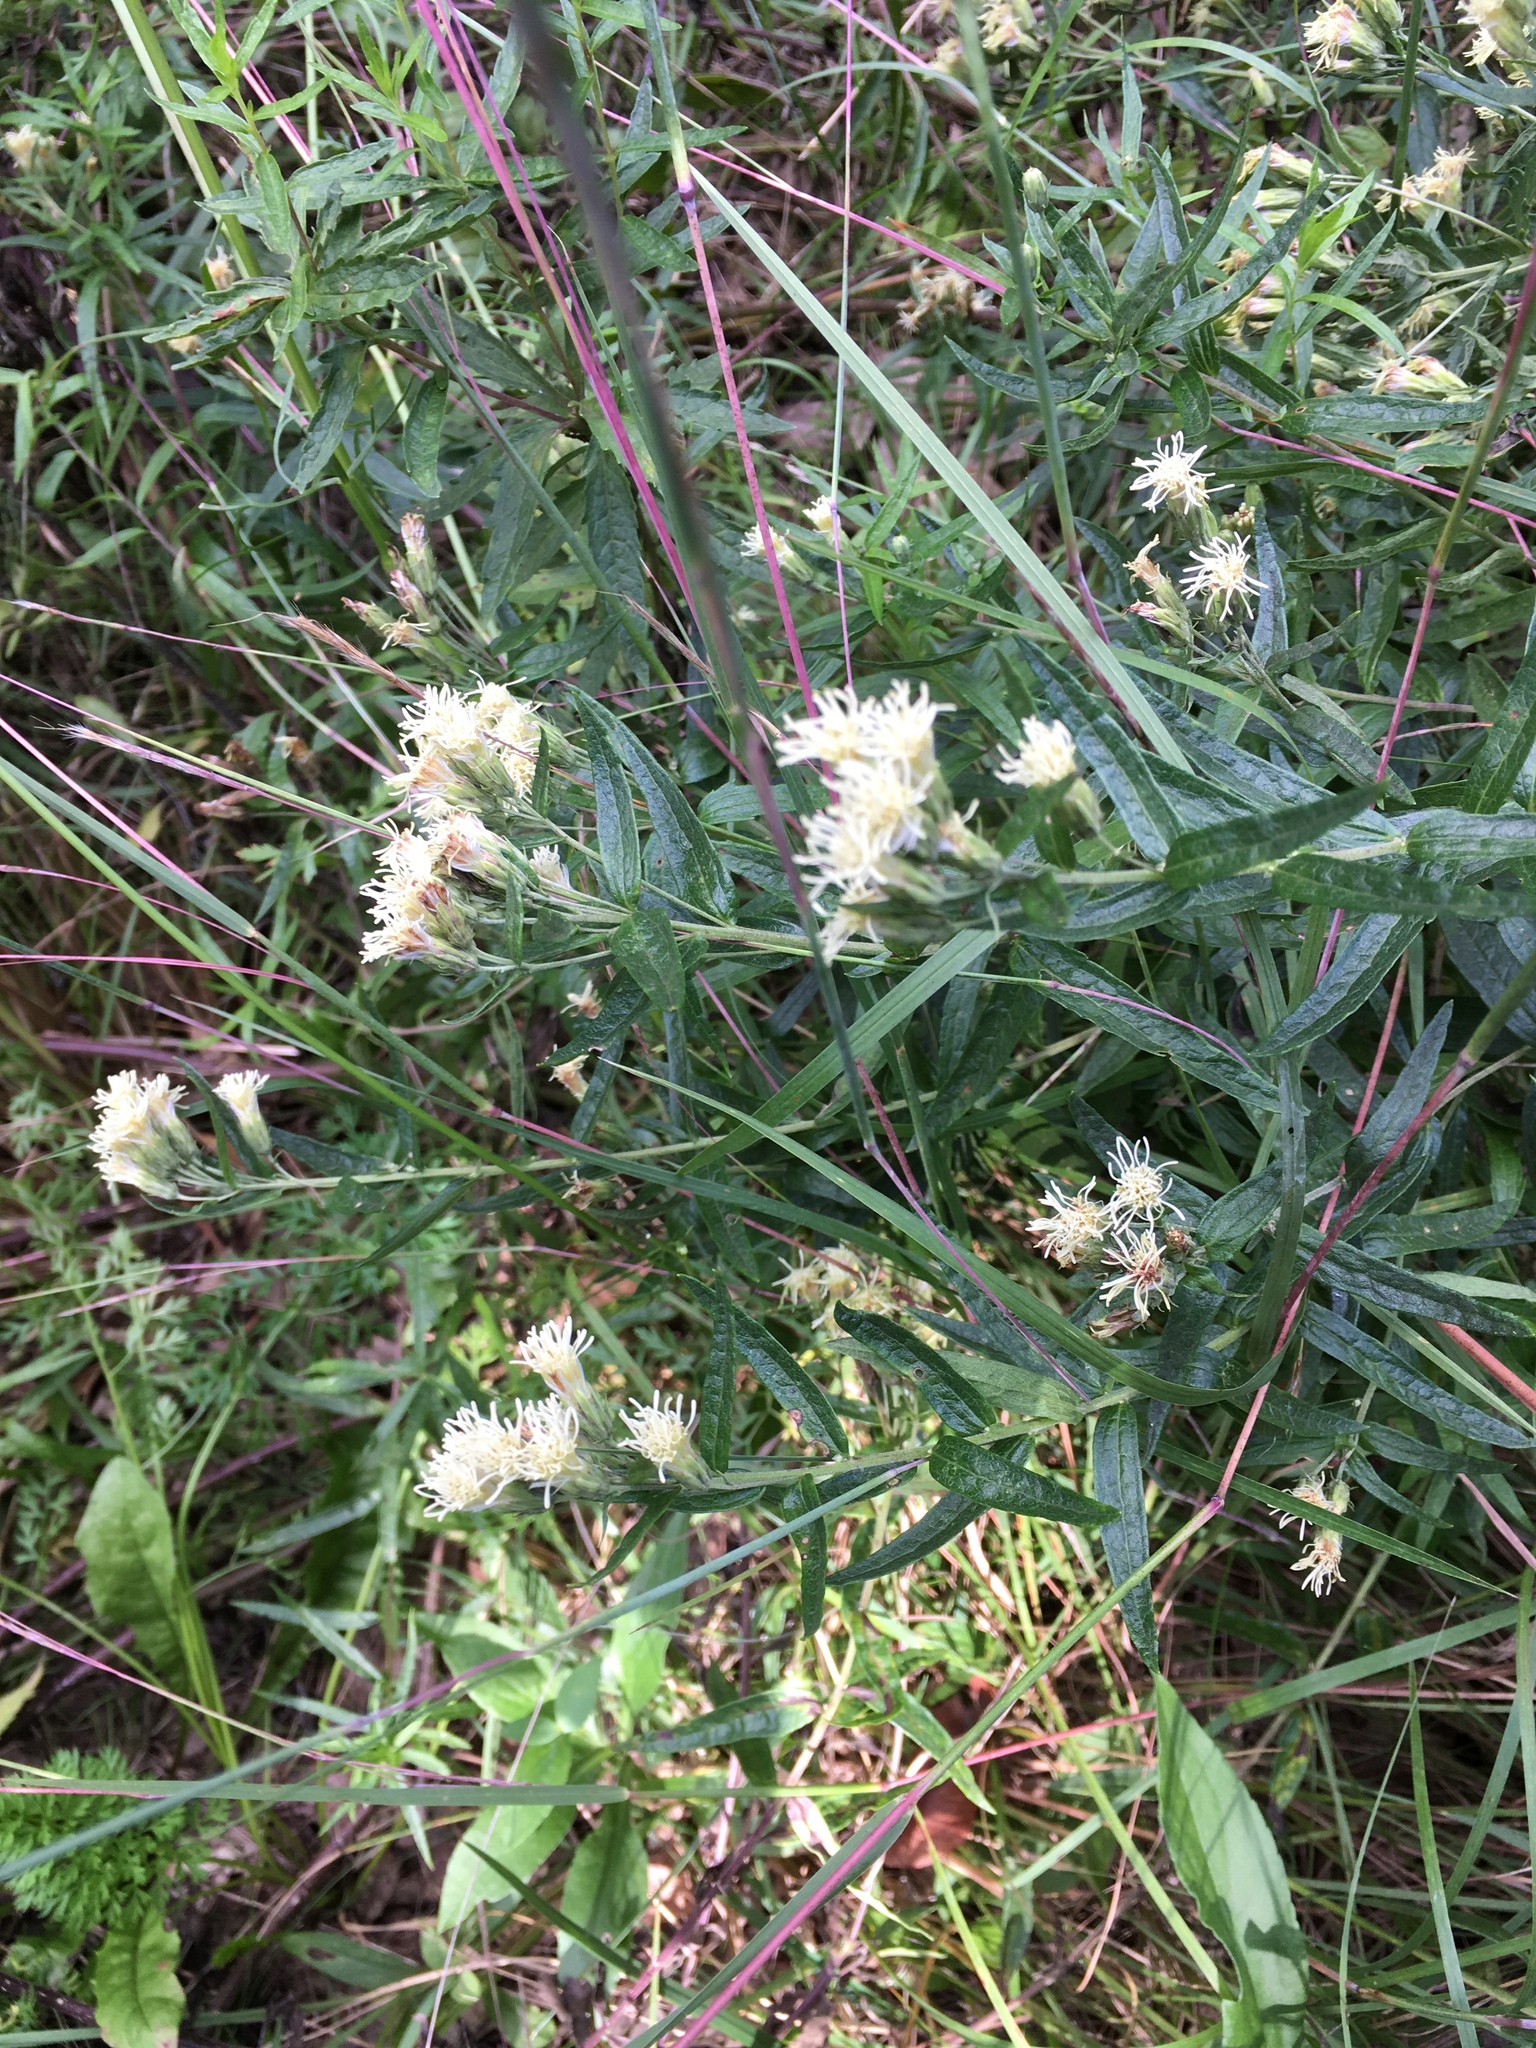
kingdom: Plantae
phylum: Tracheophyta
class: Magnoliopsida
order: Asterales
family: Asteraceae
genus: Brickellia
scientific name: Brickellia eupatorioides
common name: False boneset
